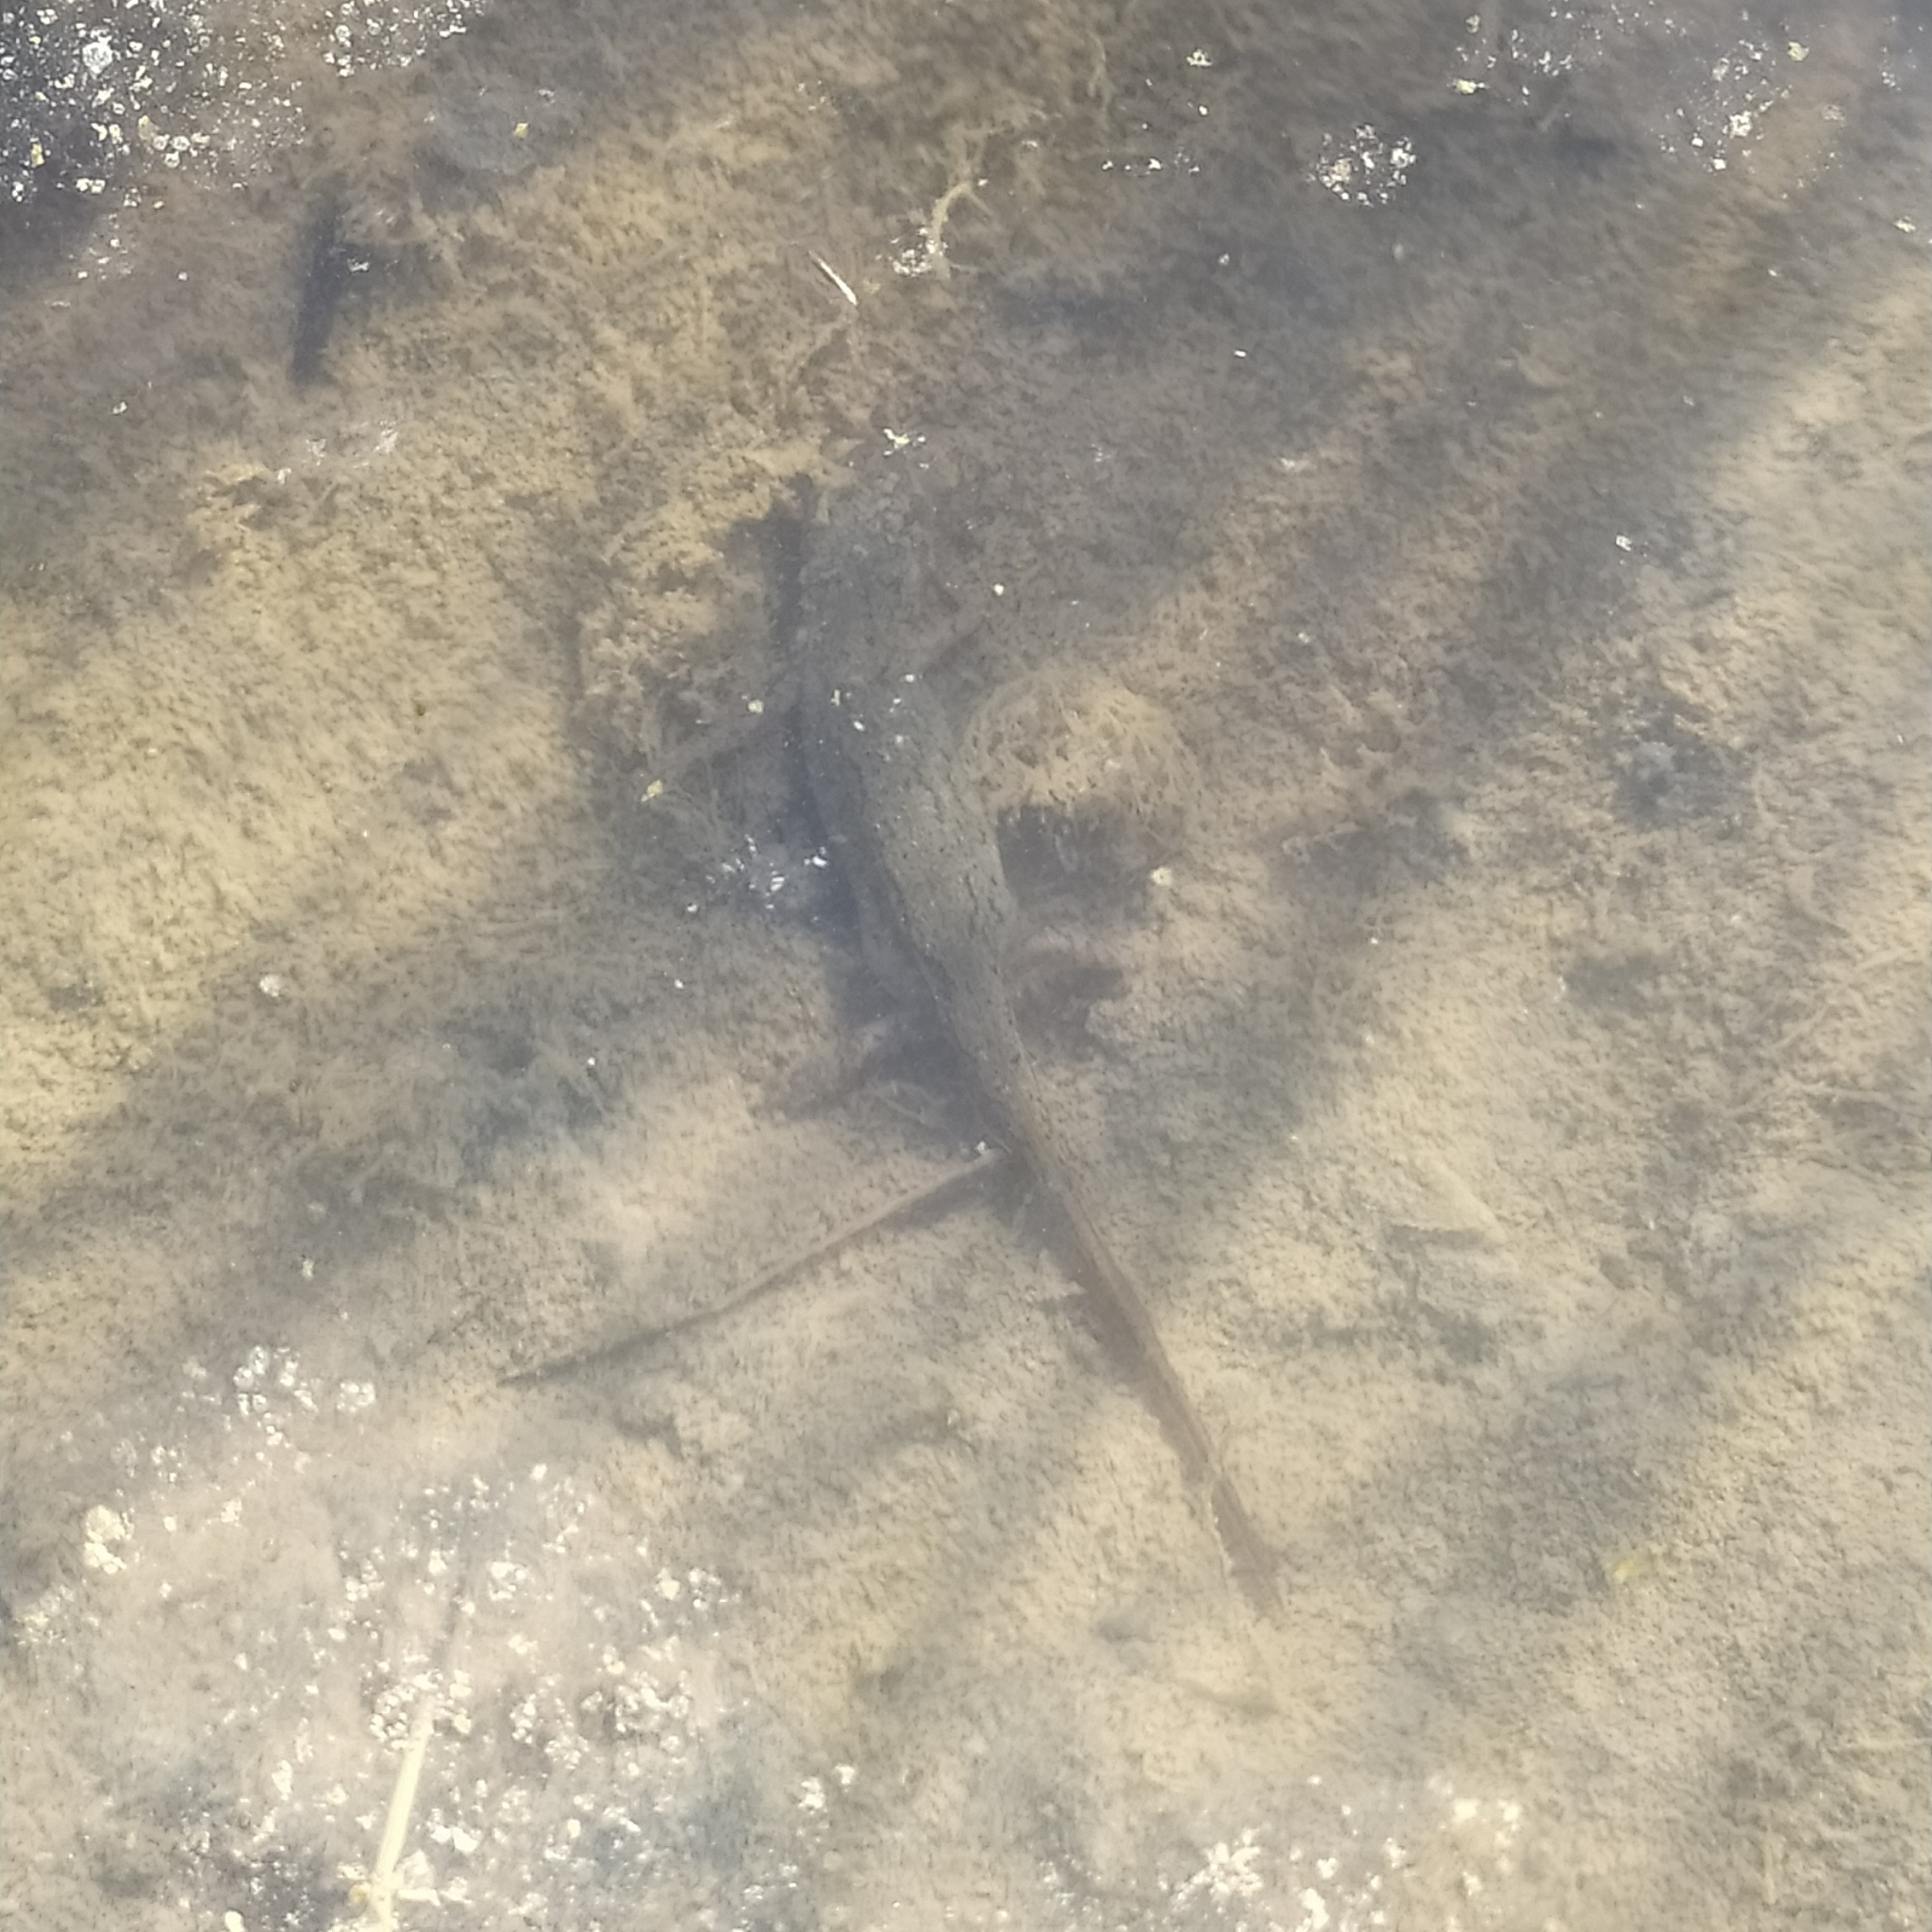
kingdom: Animalia
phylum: Chordata
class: Amphibia
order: Caudata
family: Salamandridae
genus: Lissotriton
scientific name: Lissotriton italicus
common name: Italian newt
